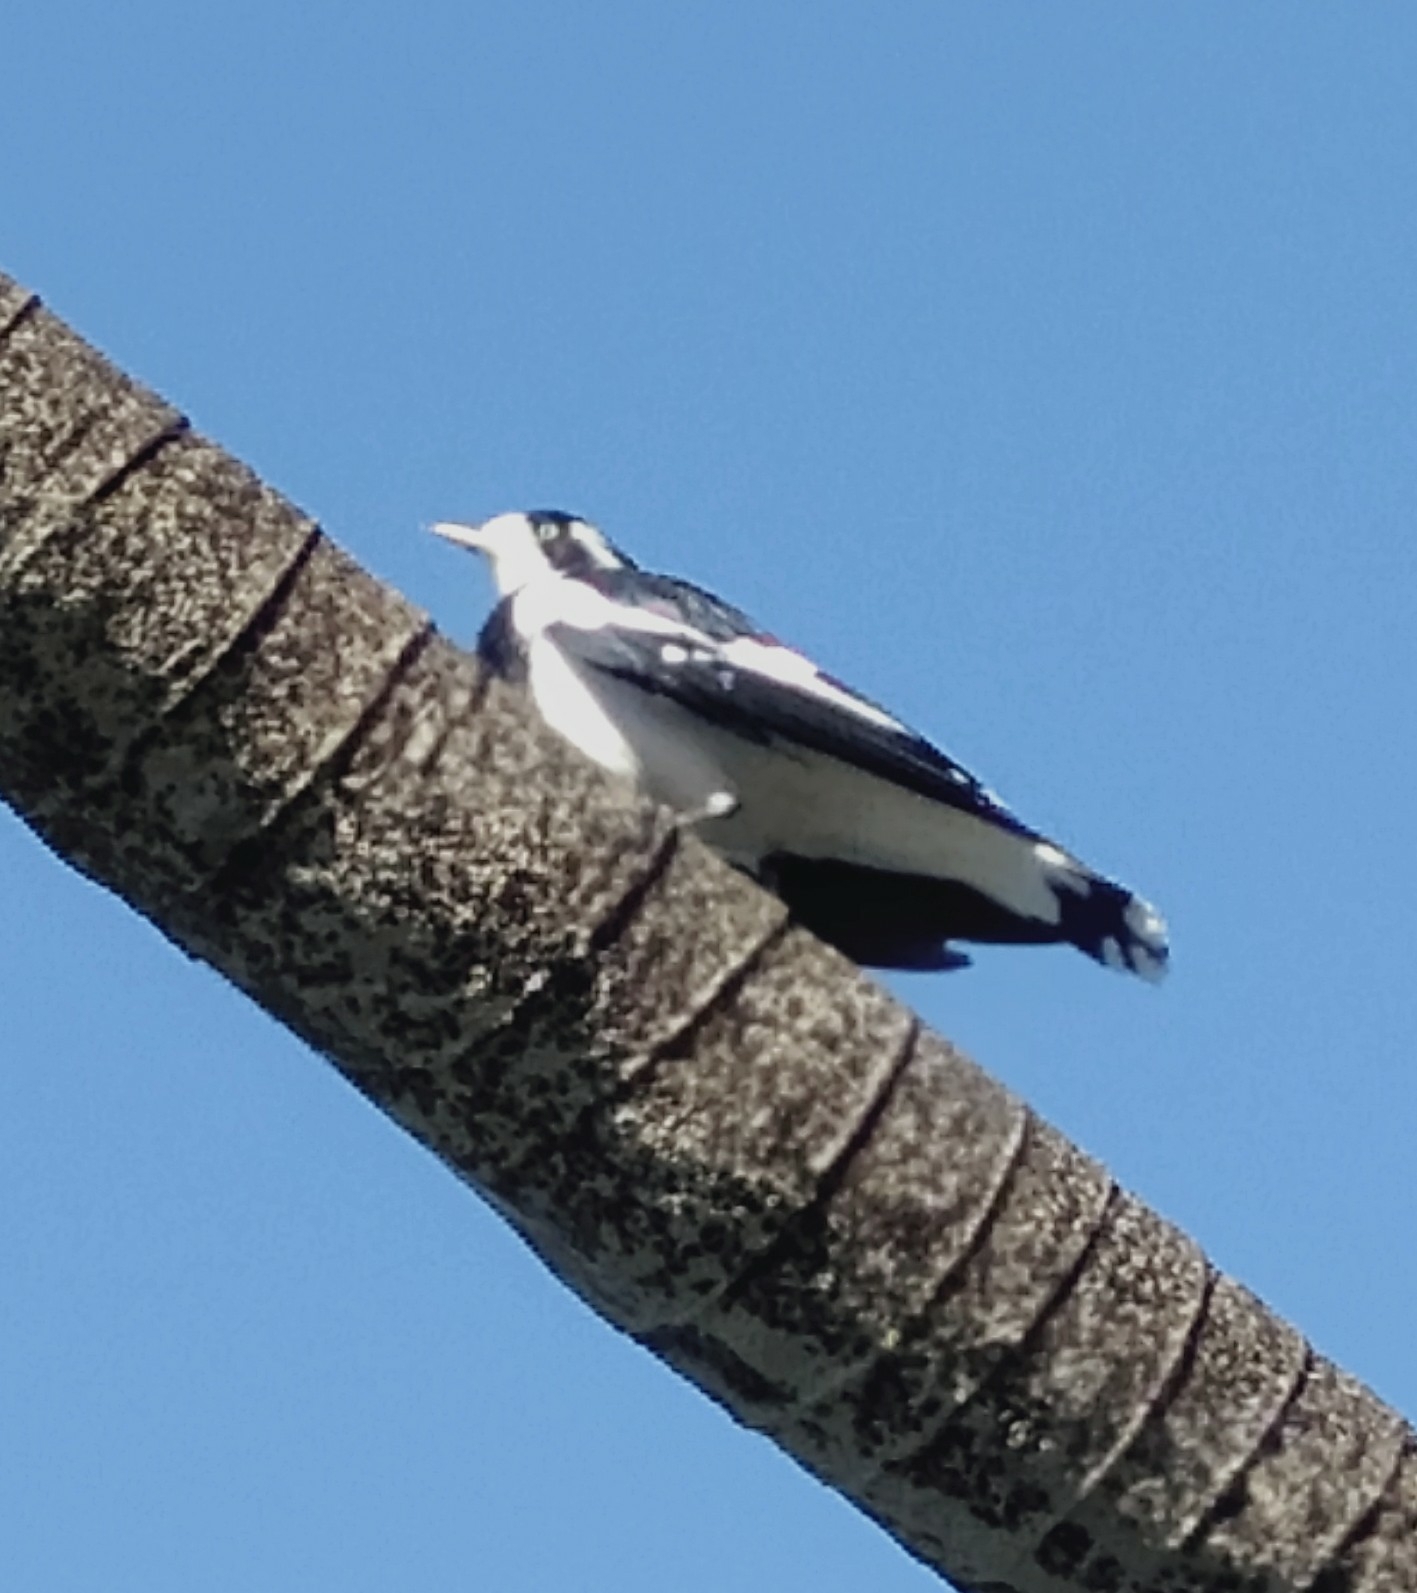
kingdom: Animalia
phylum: Chordata
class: Aves
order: Passeriformes
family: Monarchidae
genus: Grallina
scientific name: Grallina cyanoleuca
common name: Magpie-lark
